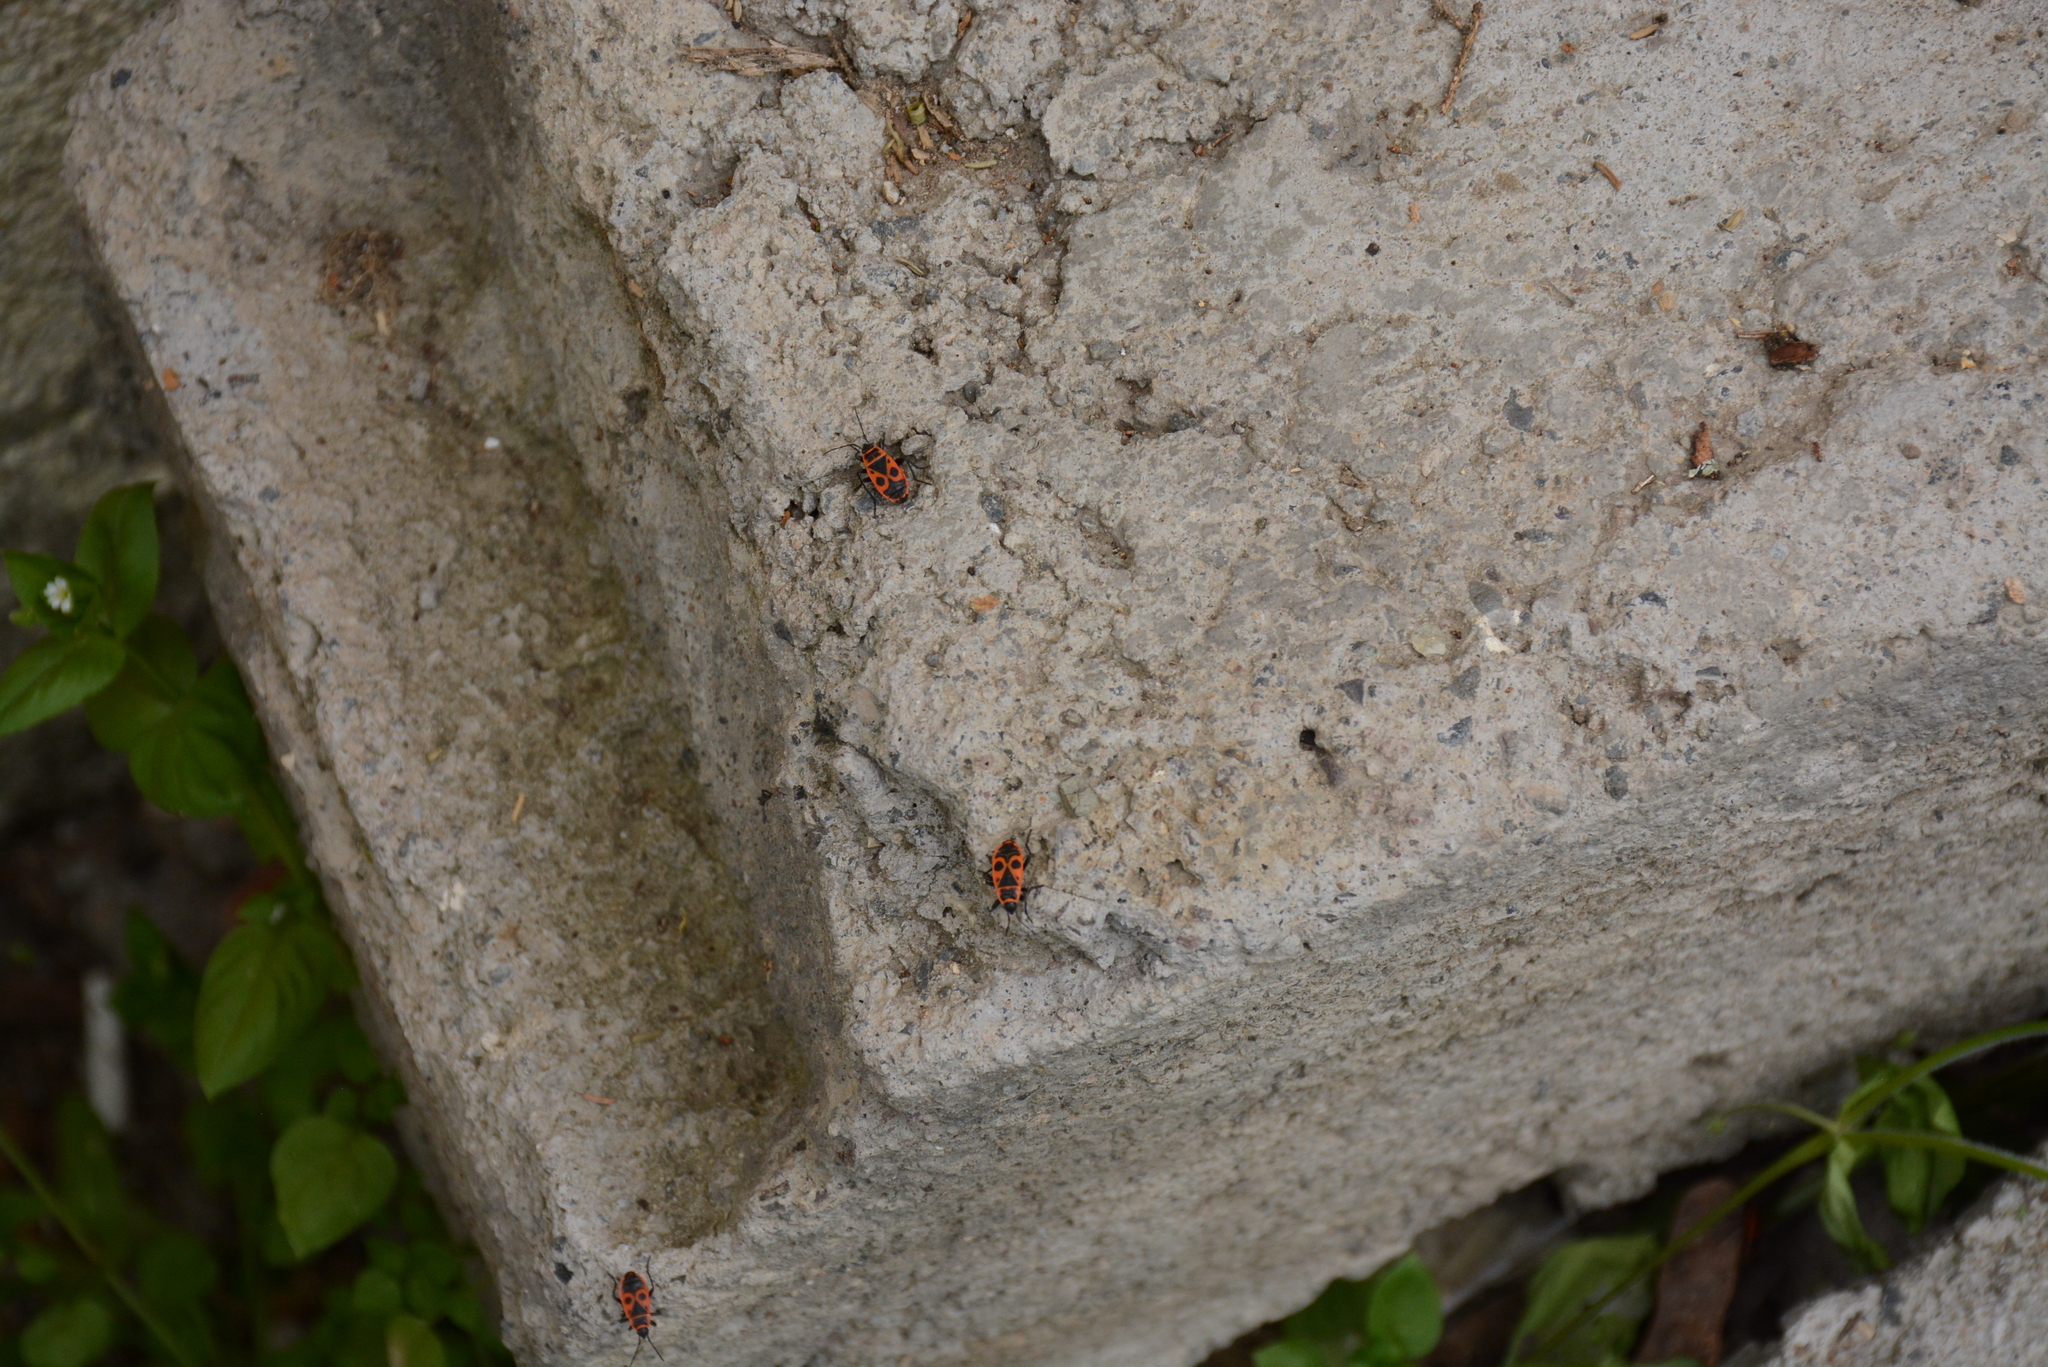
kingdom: Animalia
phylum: Arthropoda
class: Insecta
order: Hemiptera
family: Pyrrhocoridae
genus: Pyrrhocoris
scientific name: Pyrrhocoris apterus
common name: Firebug
